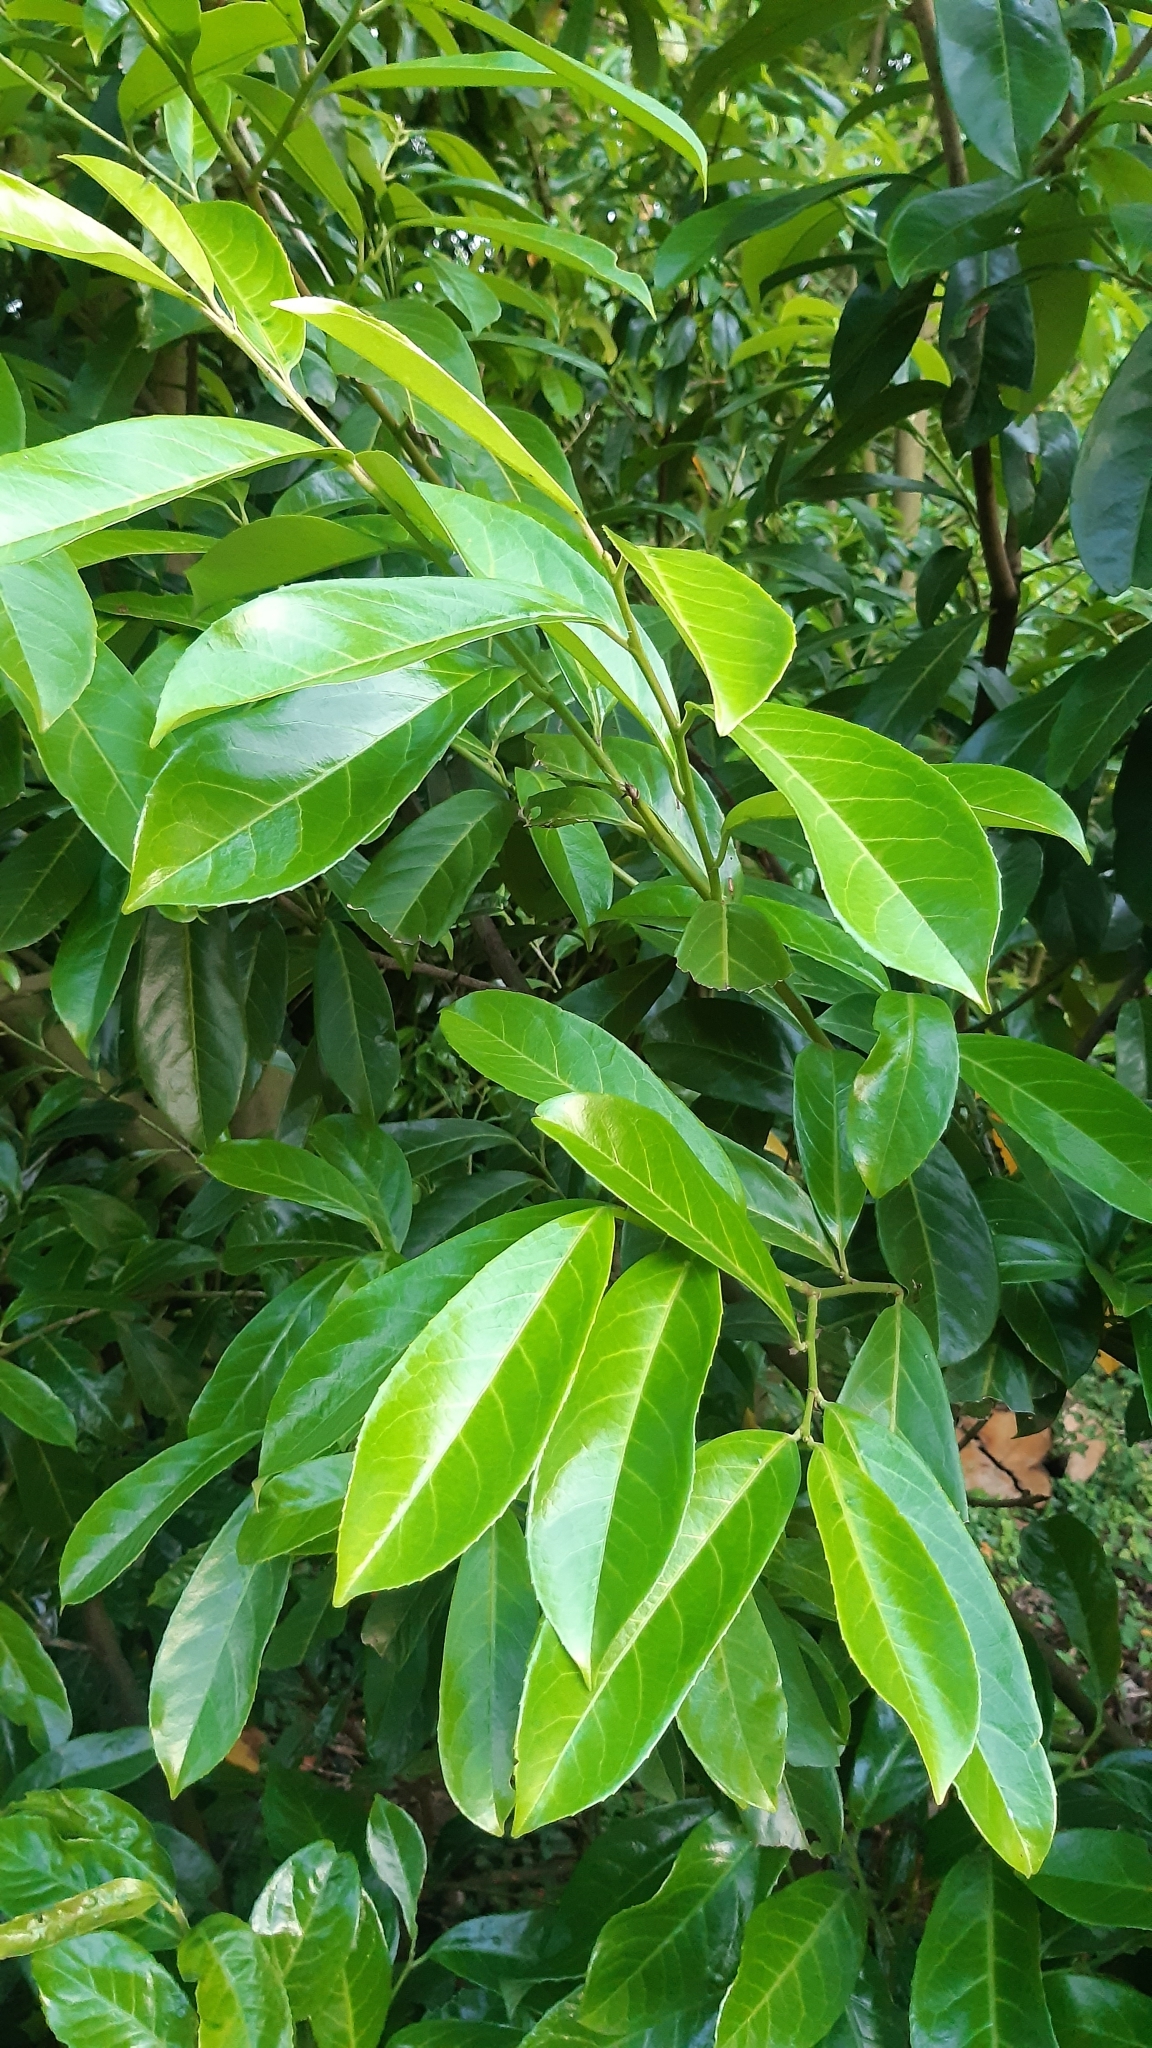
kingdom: Plantae
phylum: Tracheophyta
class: Magnoliopsida
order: Rosales
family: Rosaceae
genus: Prunus
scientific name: Prunus laurocerasus
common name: Cherry laurel
